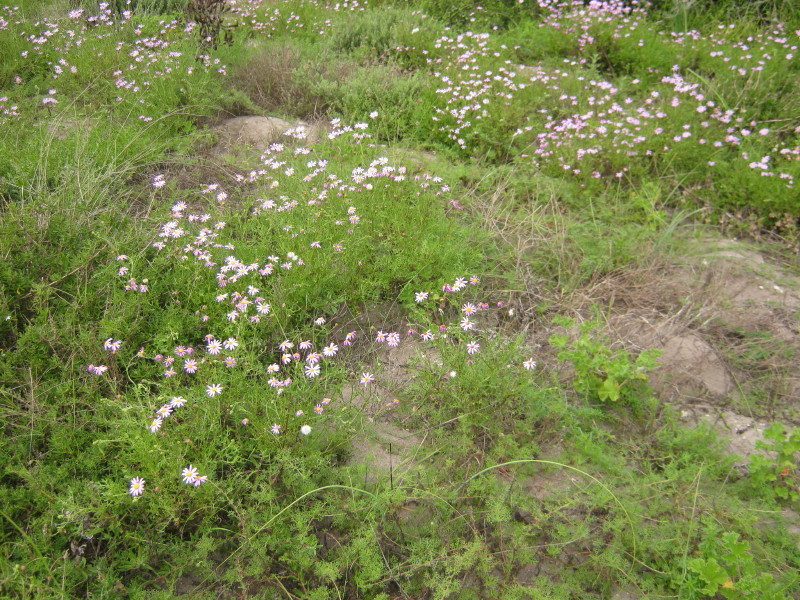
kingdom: Plantae
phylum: Tracheophyta
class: Magnoliopsida
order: Asterales
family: Asteraceae
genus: Senecio
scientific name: Senecio elegans
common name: Purple groundsel
